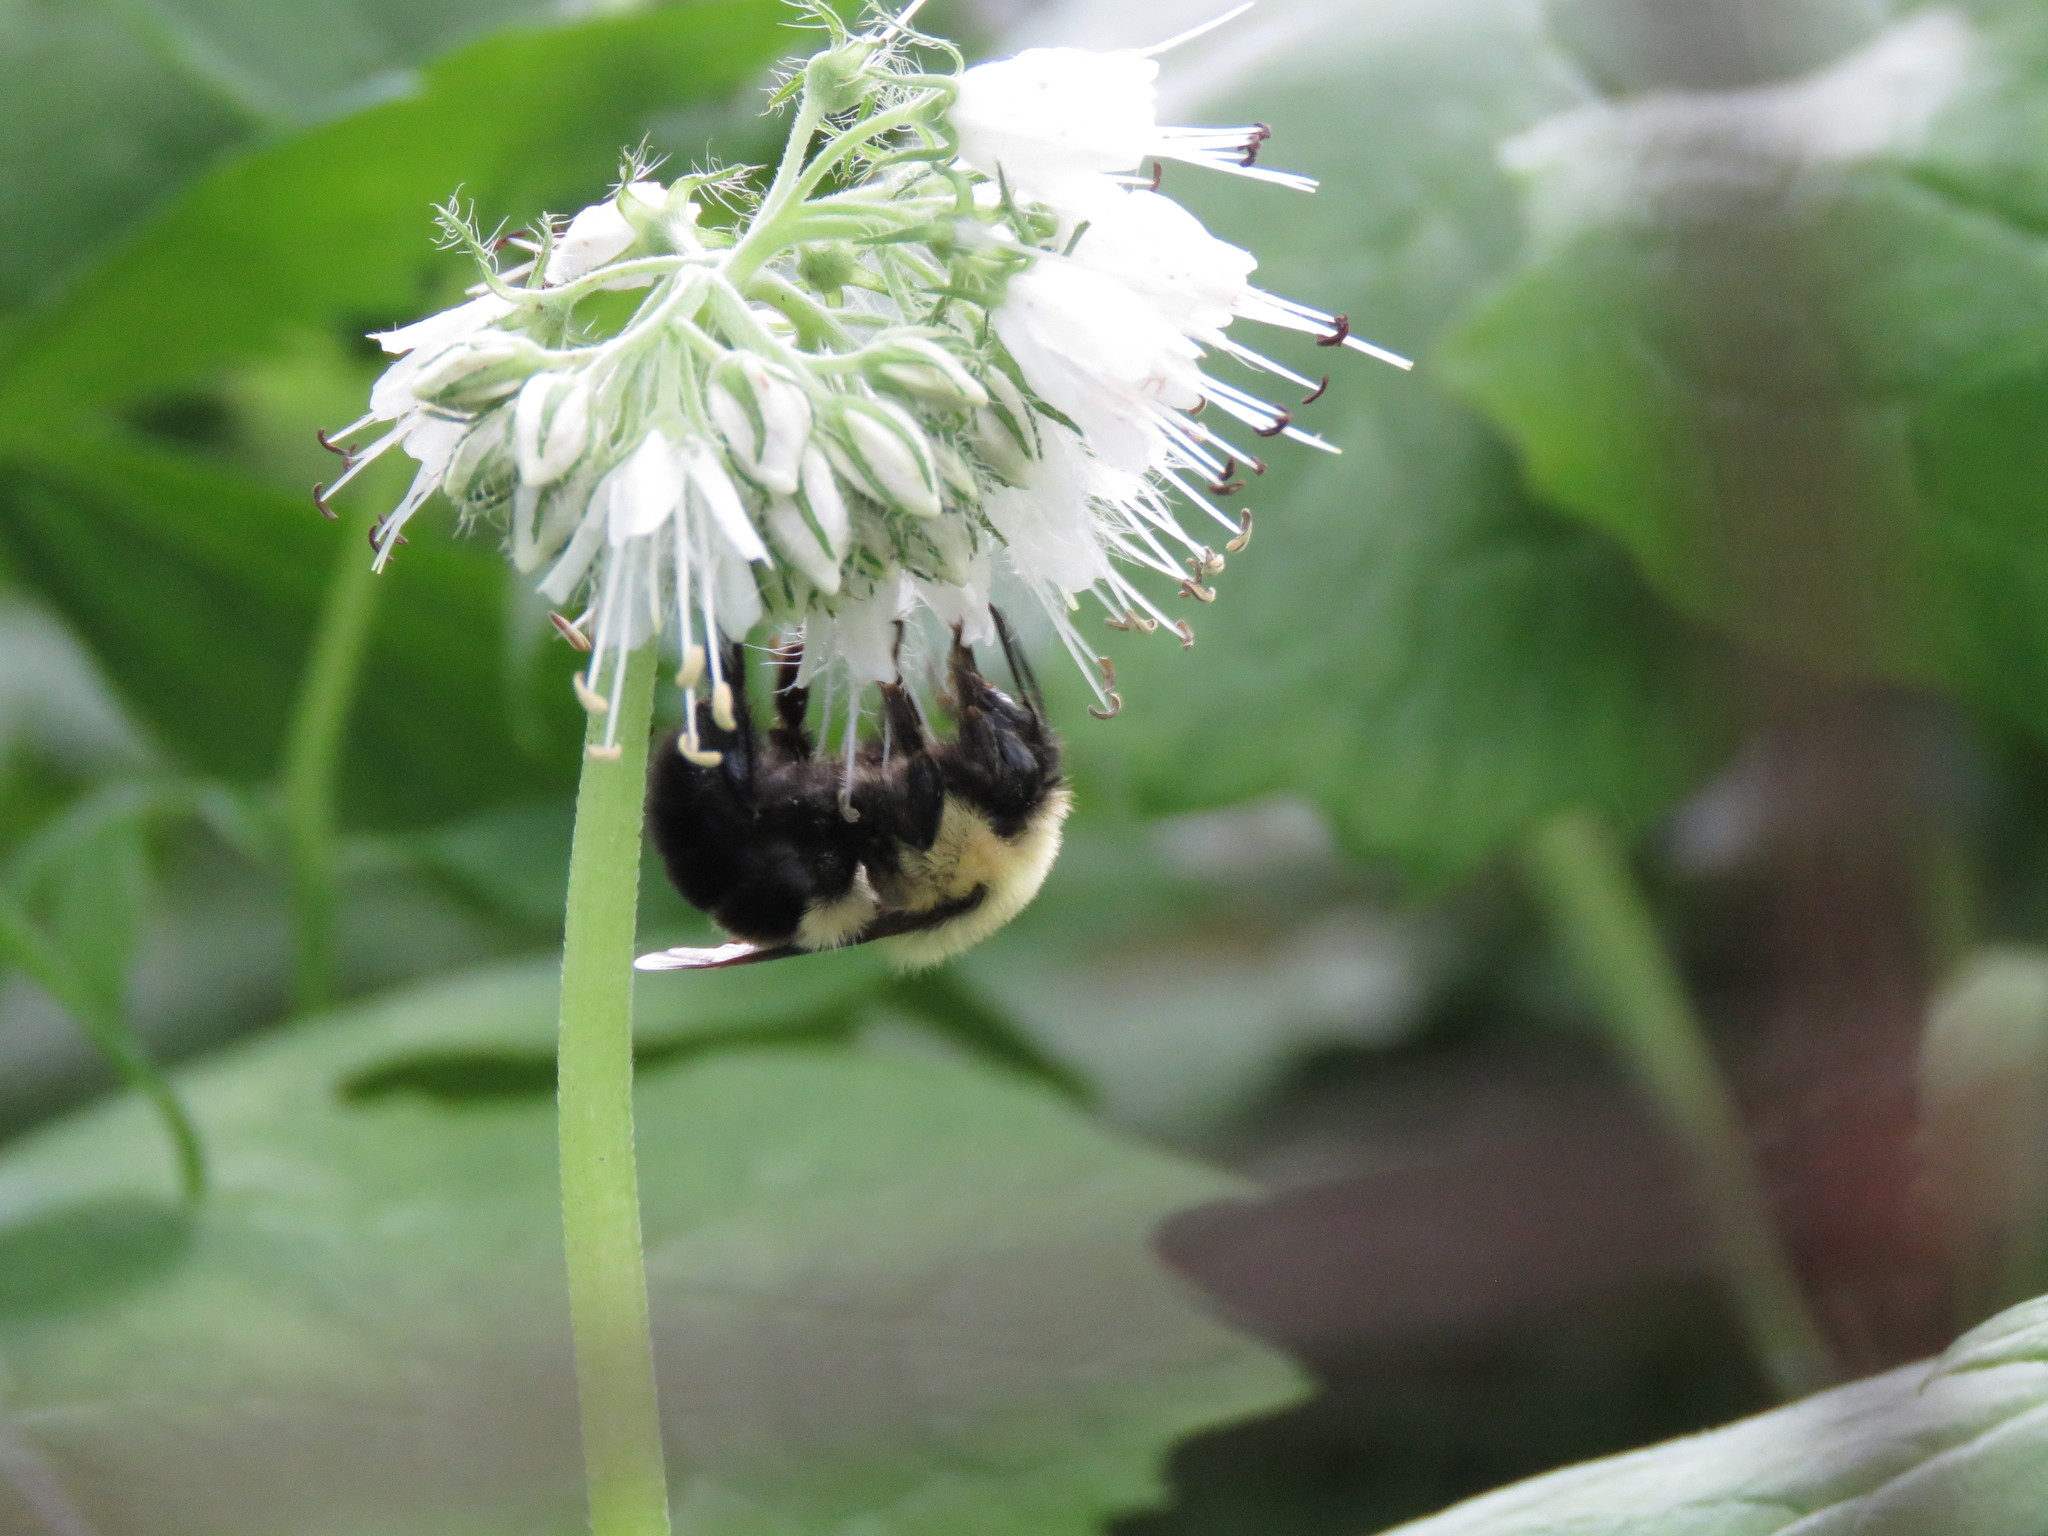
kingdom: Animalia
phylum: Arthropoda
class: Insecta
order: Hymenoptera
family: Apidae
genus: Bombus
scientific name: Bombus bimaculatus
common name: Two-spotted bumble bee
